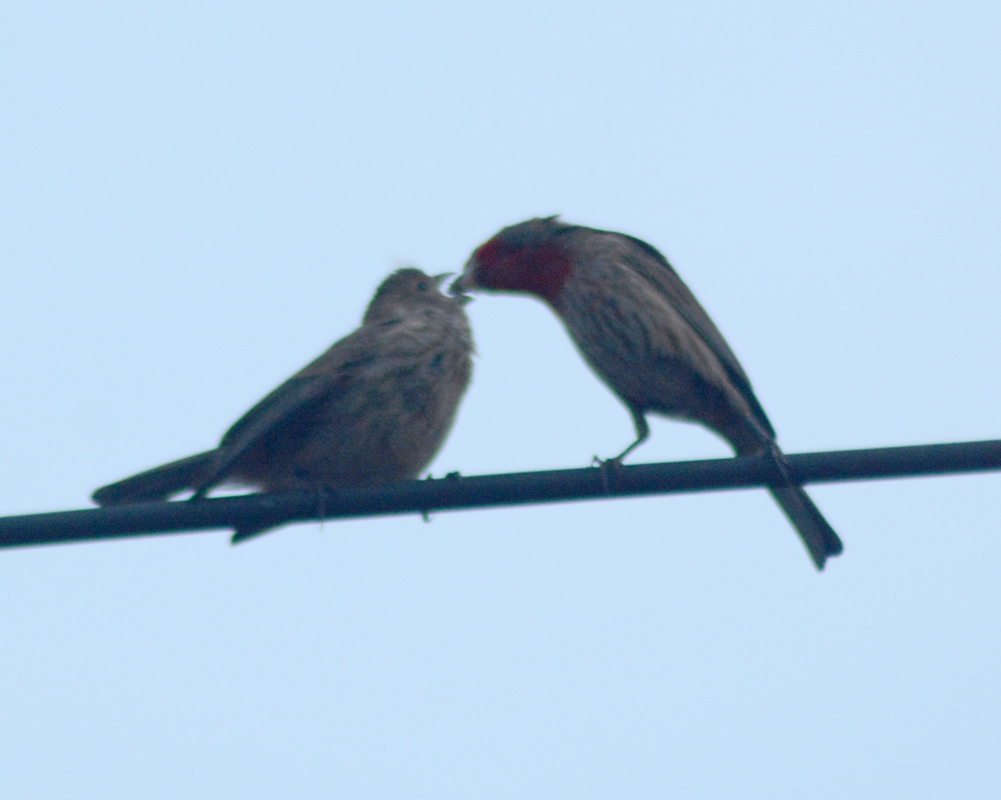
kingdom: Animalia
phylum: Chordata
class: Aves
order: Passeriformes
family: Fringillidae
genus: Haemorhous
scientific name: Haemorhous mexicanus
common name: House finch
